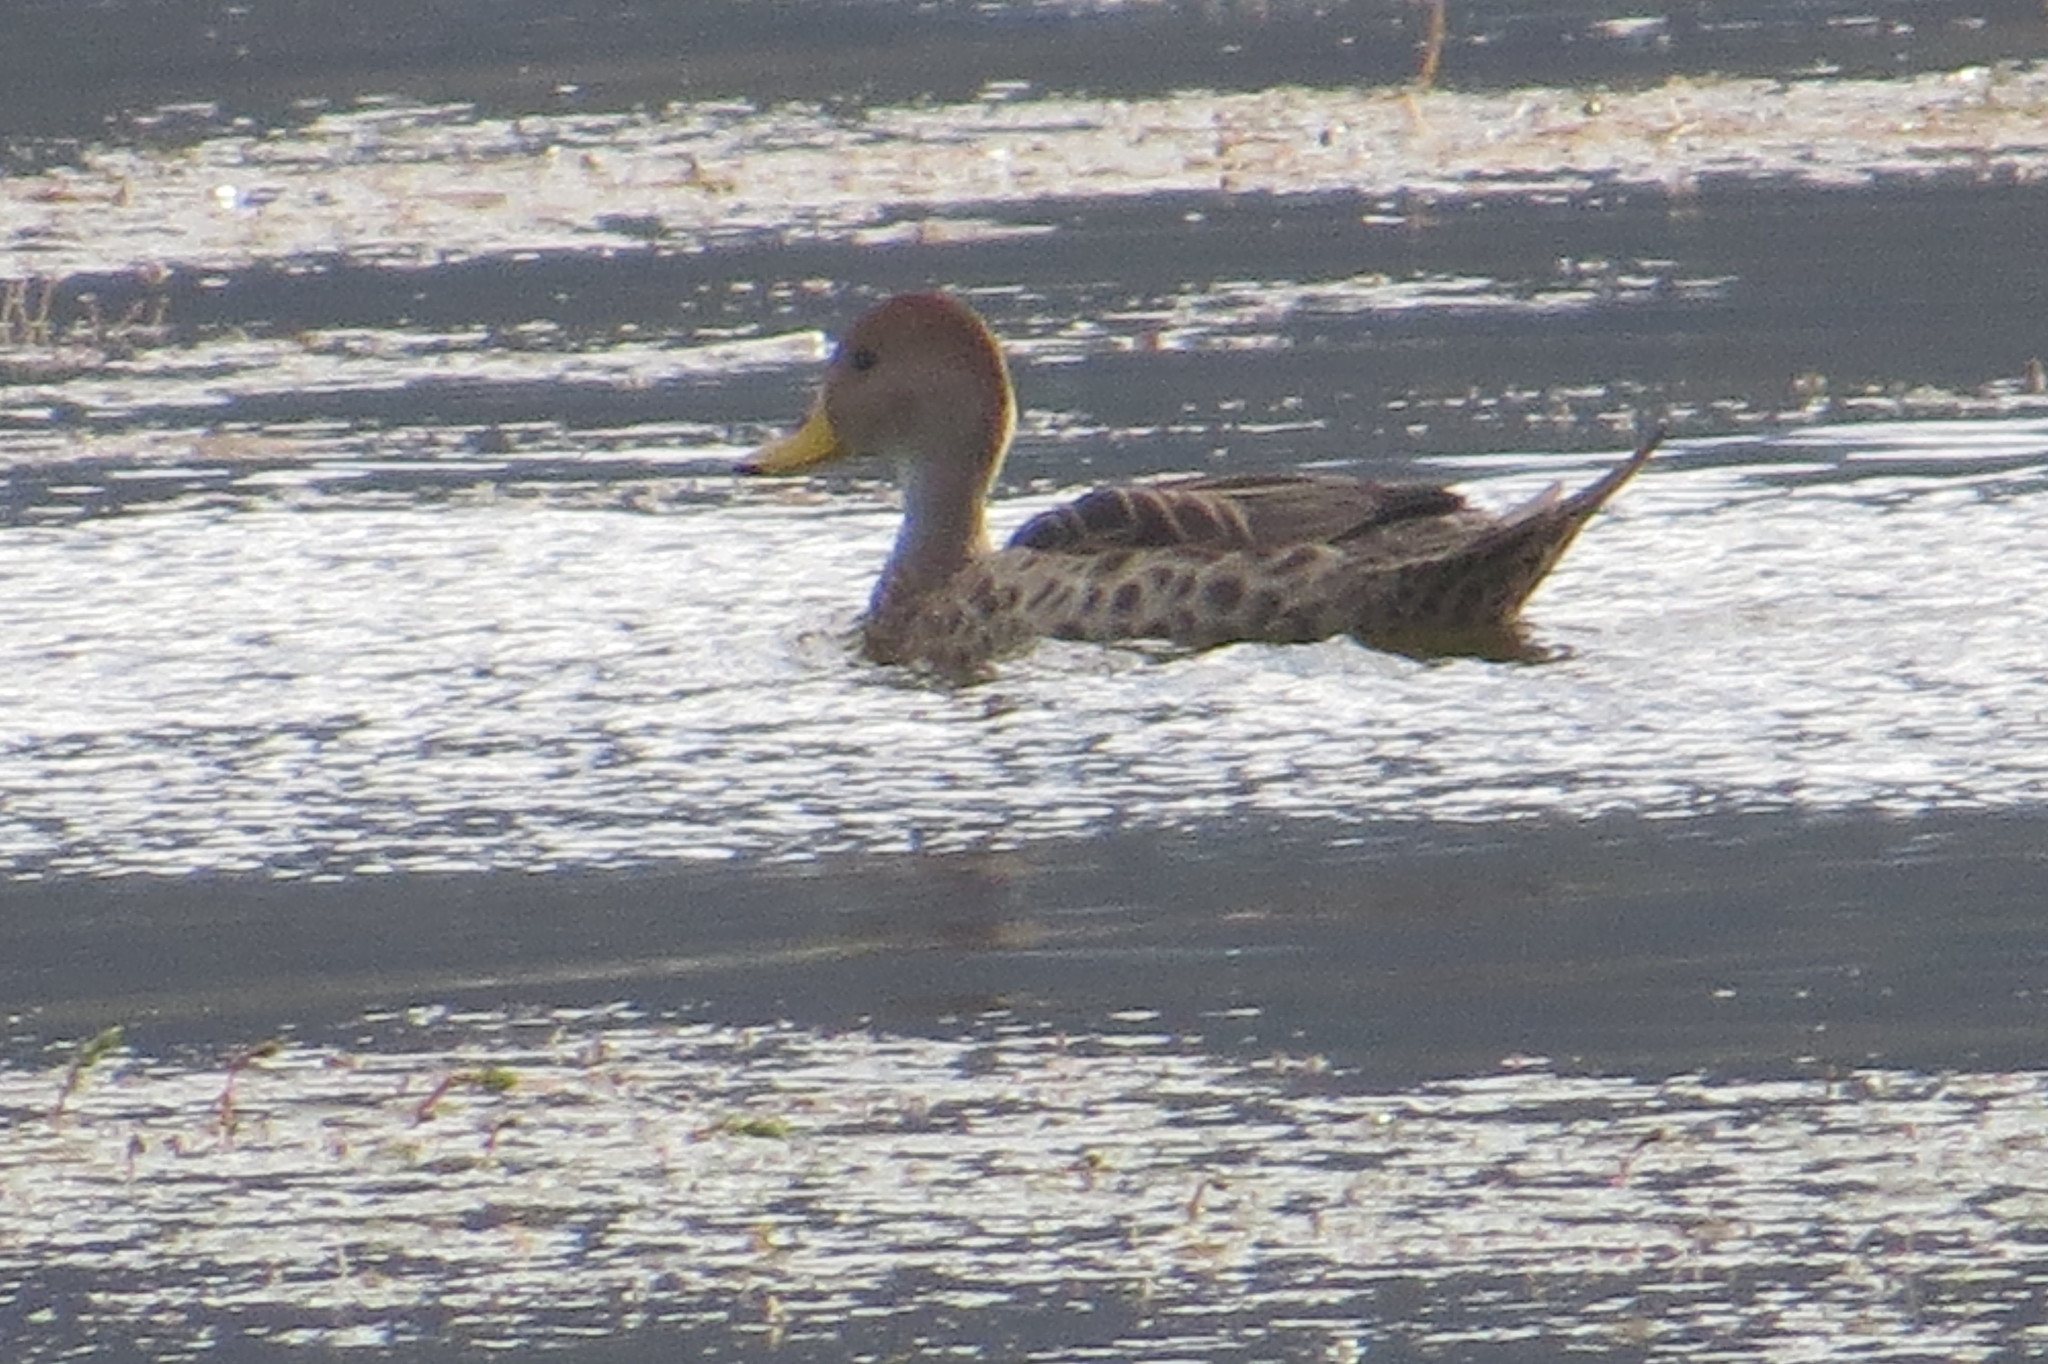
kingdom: Animalia
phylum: Chordata
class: Aves
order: Anseriformes
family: Anatidae
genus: Anas
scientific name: Anas georgica
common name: Yellow-billed pintail
